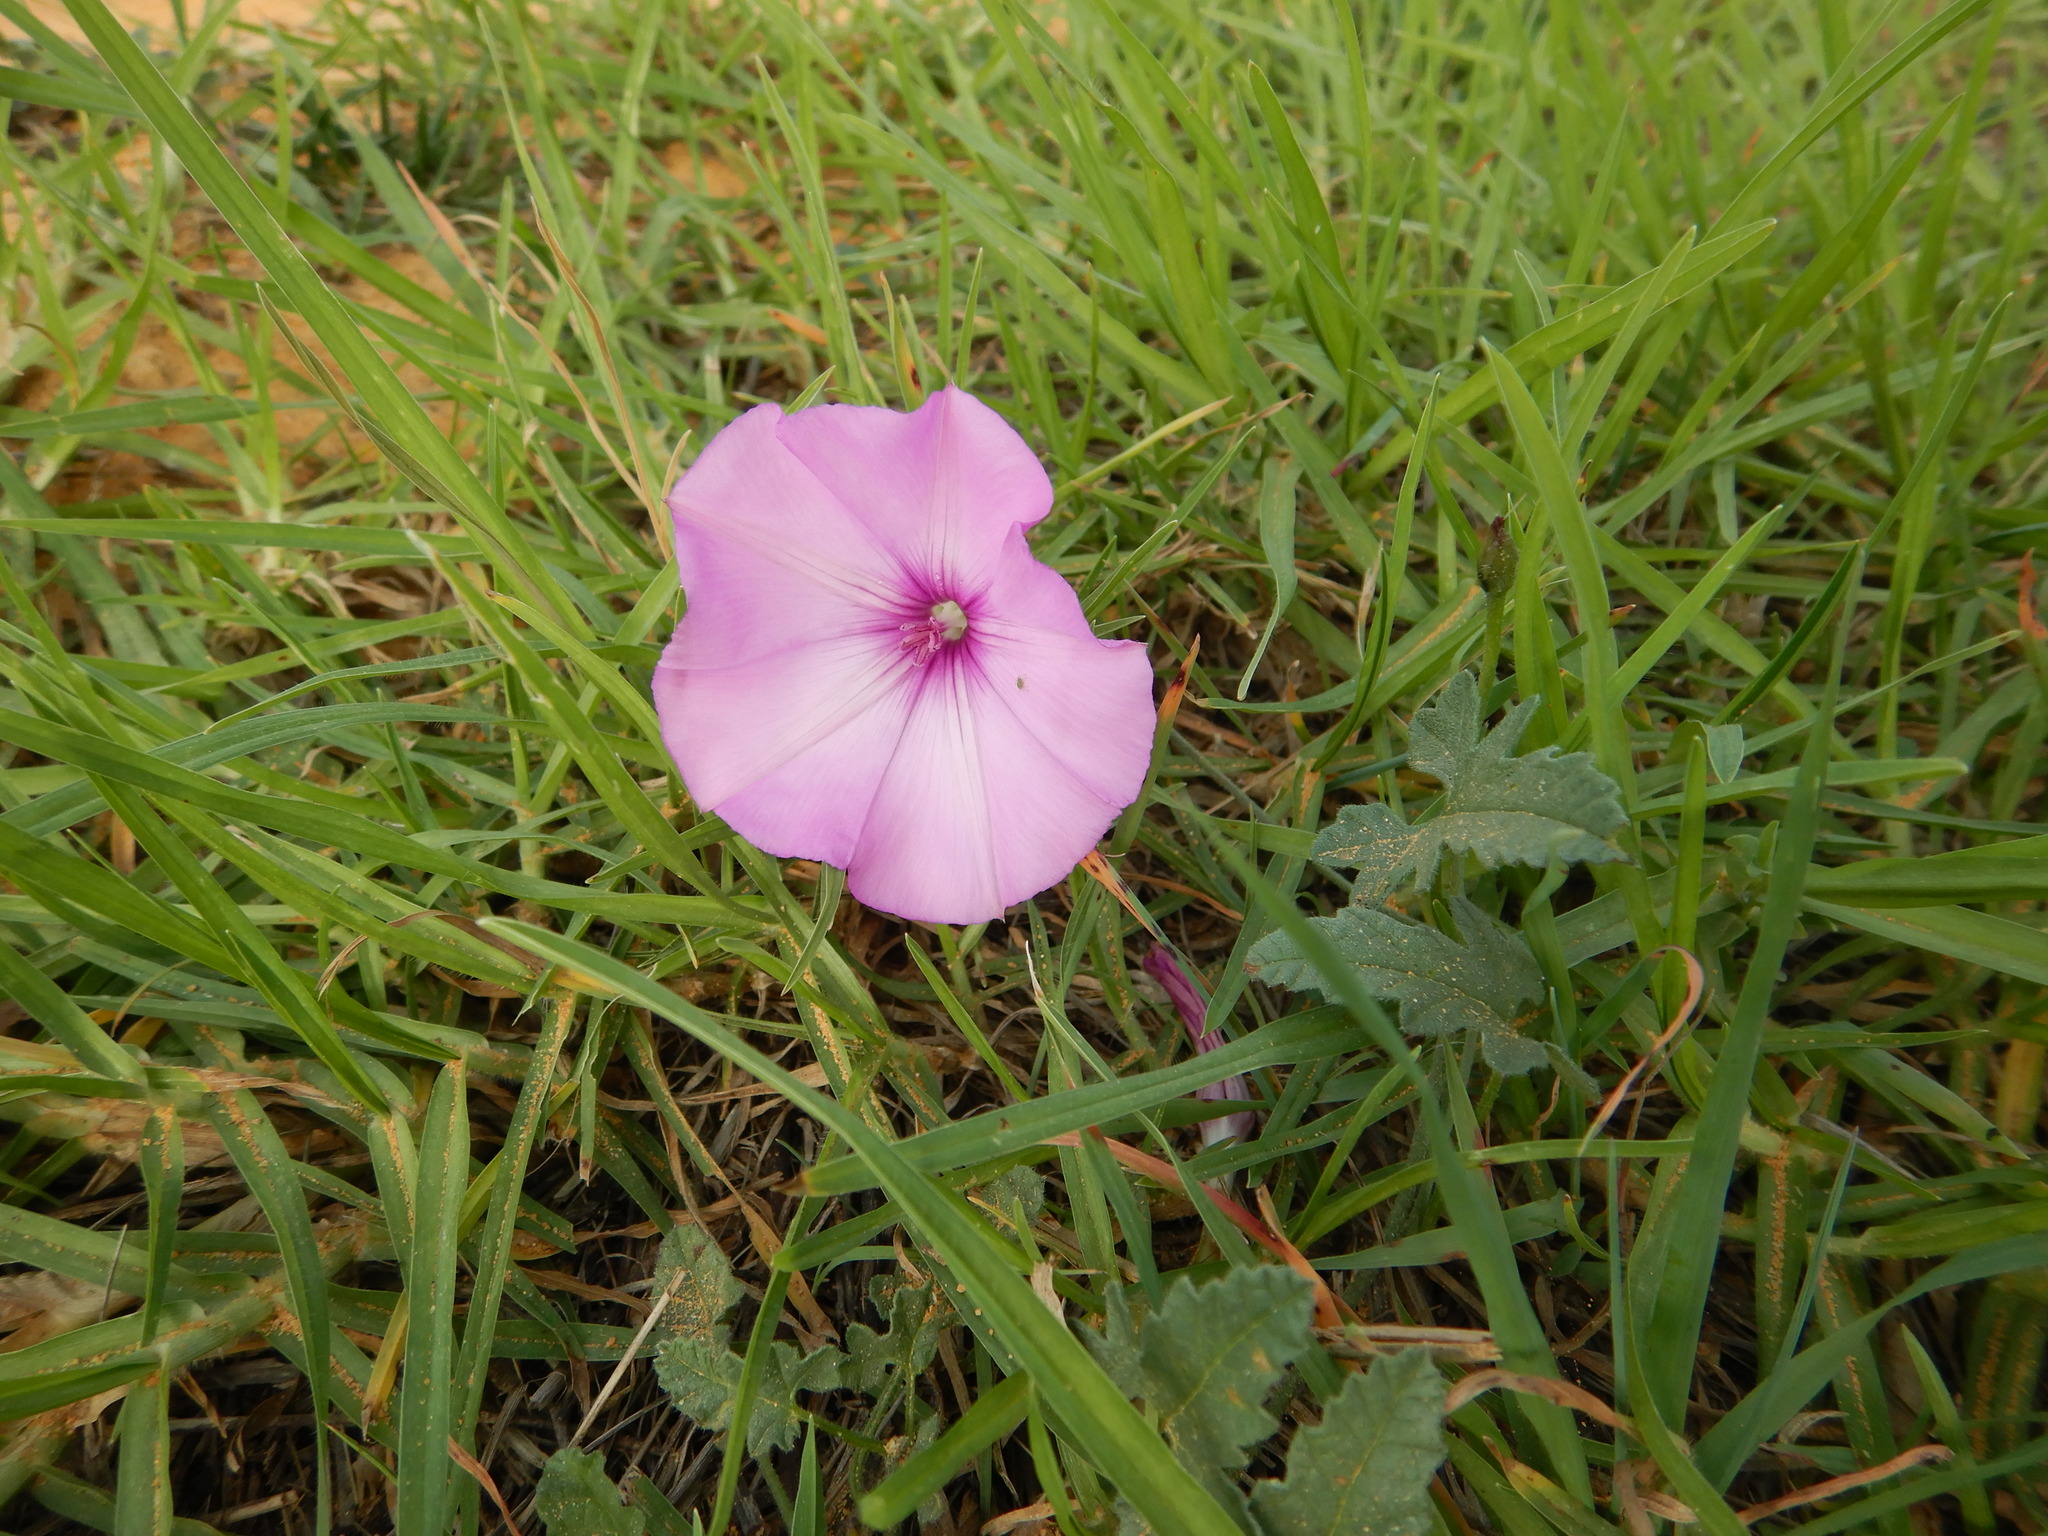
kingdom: Plantae
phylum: Tracheophyta
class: Magnoliopsida
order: Solanales
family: Convolvulaceae
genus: Convolvulus
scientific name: Convolvulus althaeoides
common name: Mallow bindweed
